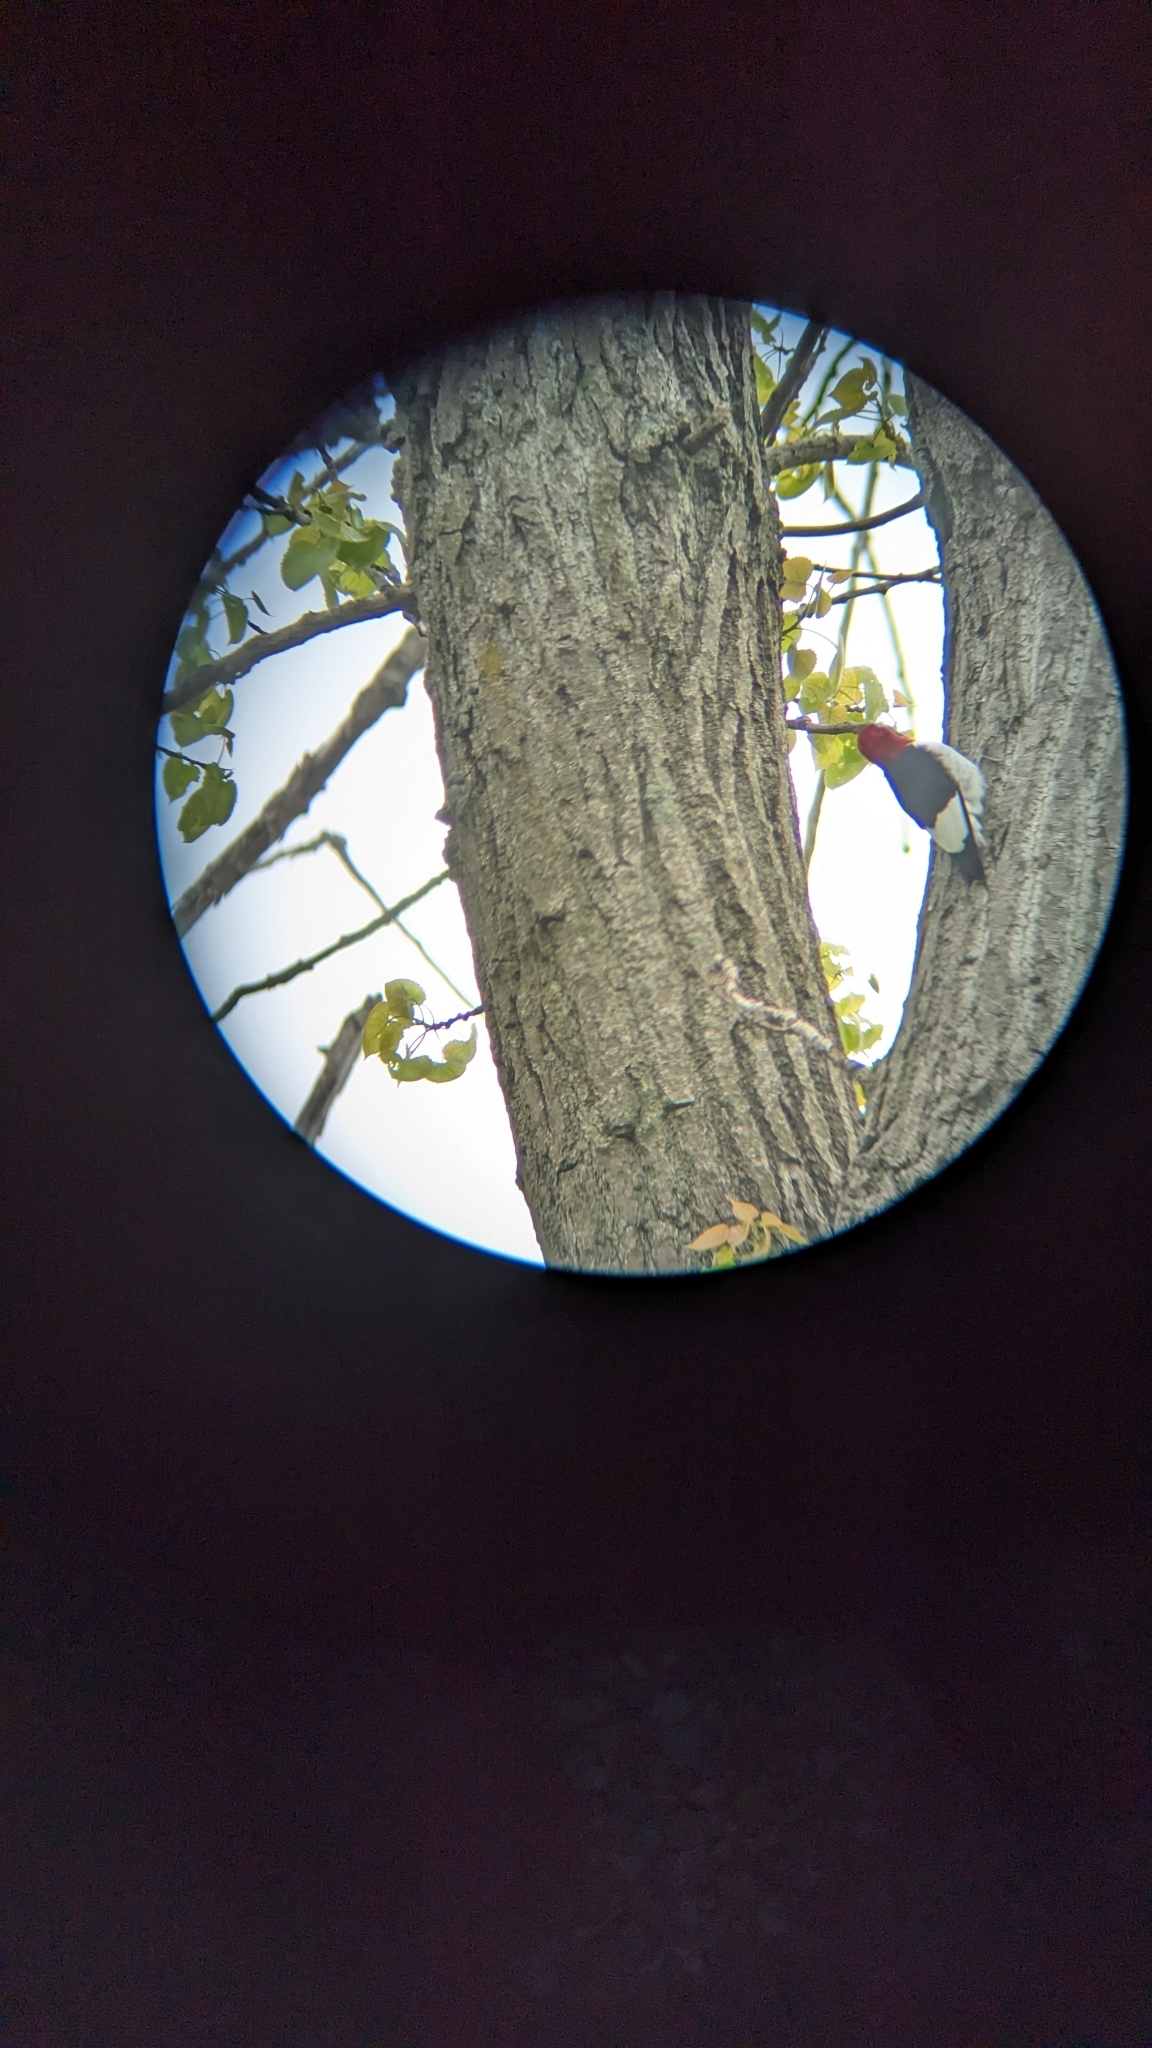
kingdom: Animalia
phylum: Chordata
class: Aves
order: Piciformes
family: Picidae
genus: Melanerpes
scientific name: Melanerpes erythrocephalus
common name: Red-headed woodpecker
